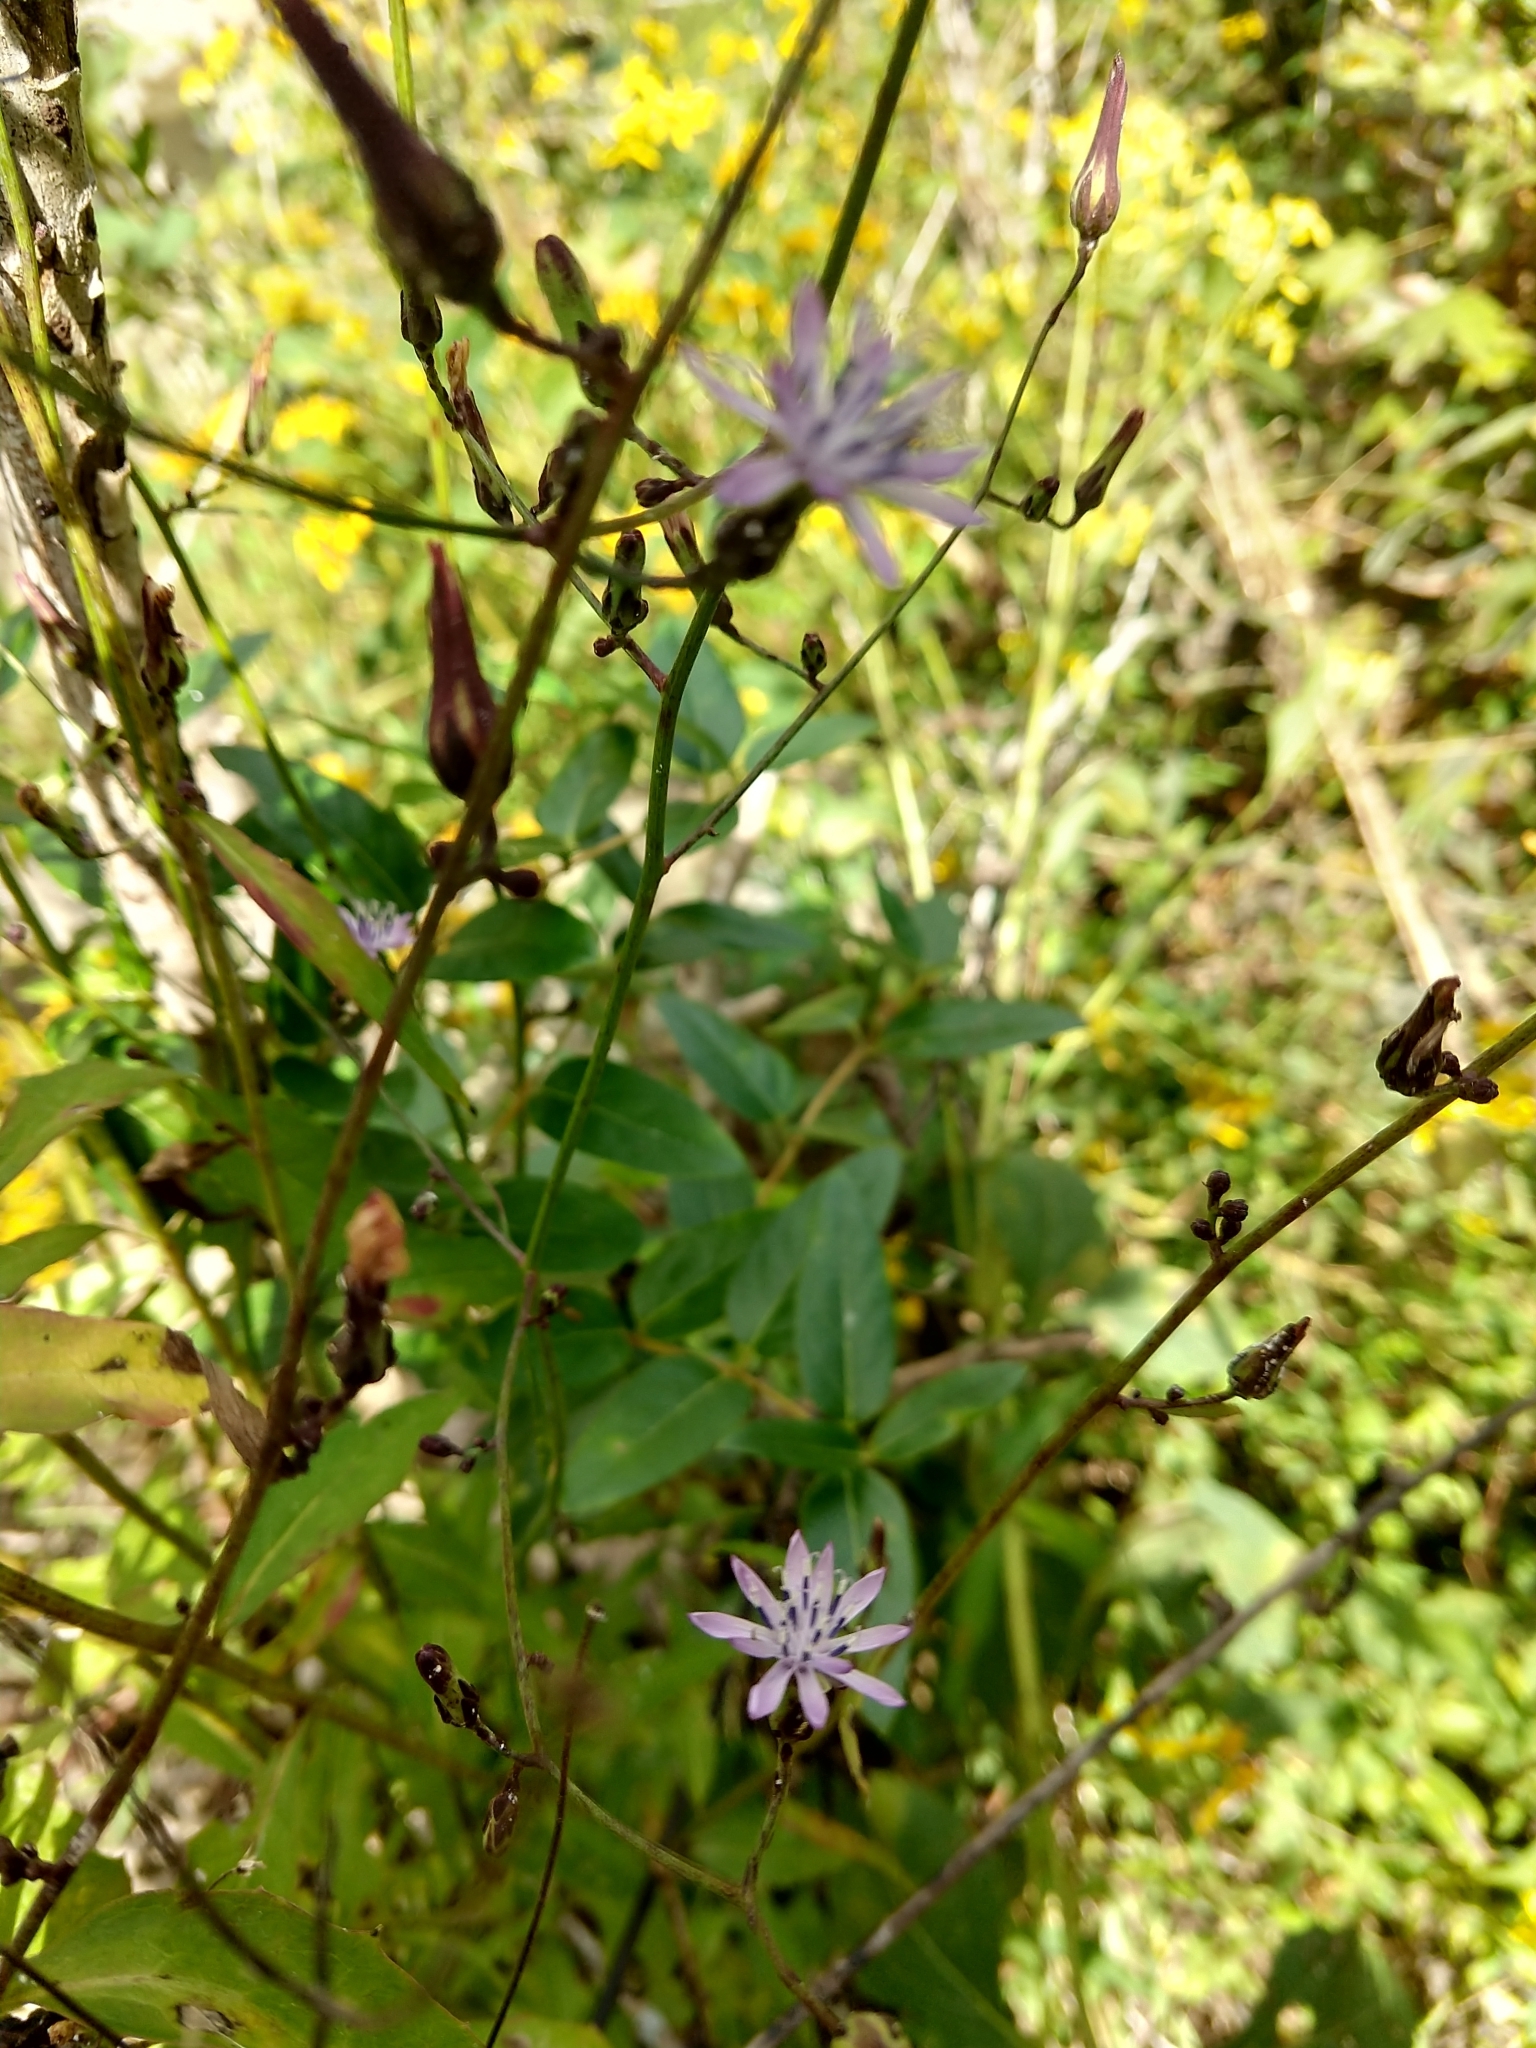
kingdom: Plantae
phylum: Tracheophyta
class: Magnoliopsida
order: Asterales
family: Asteraceae
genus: Lactuca
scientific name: Lactuca floridana
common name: Woodland lettuce
